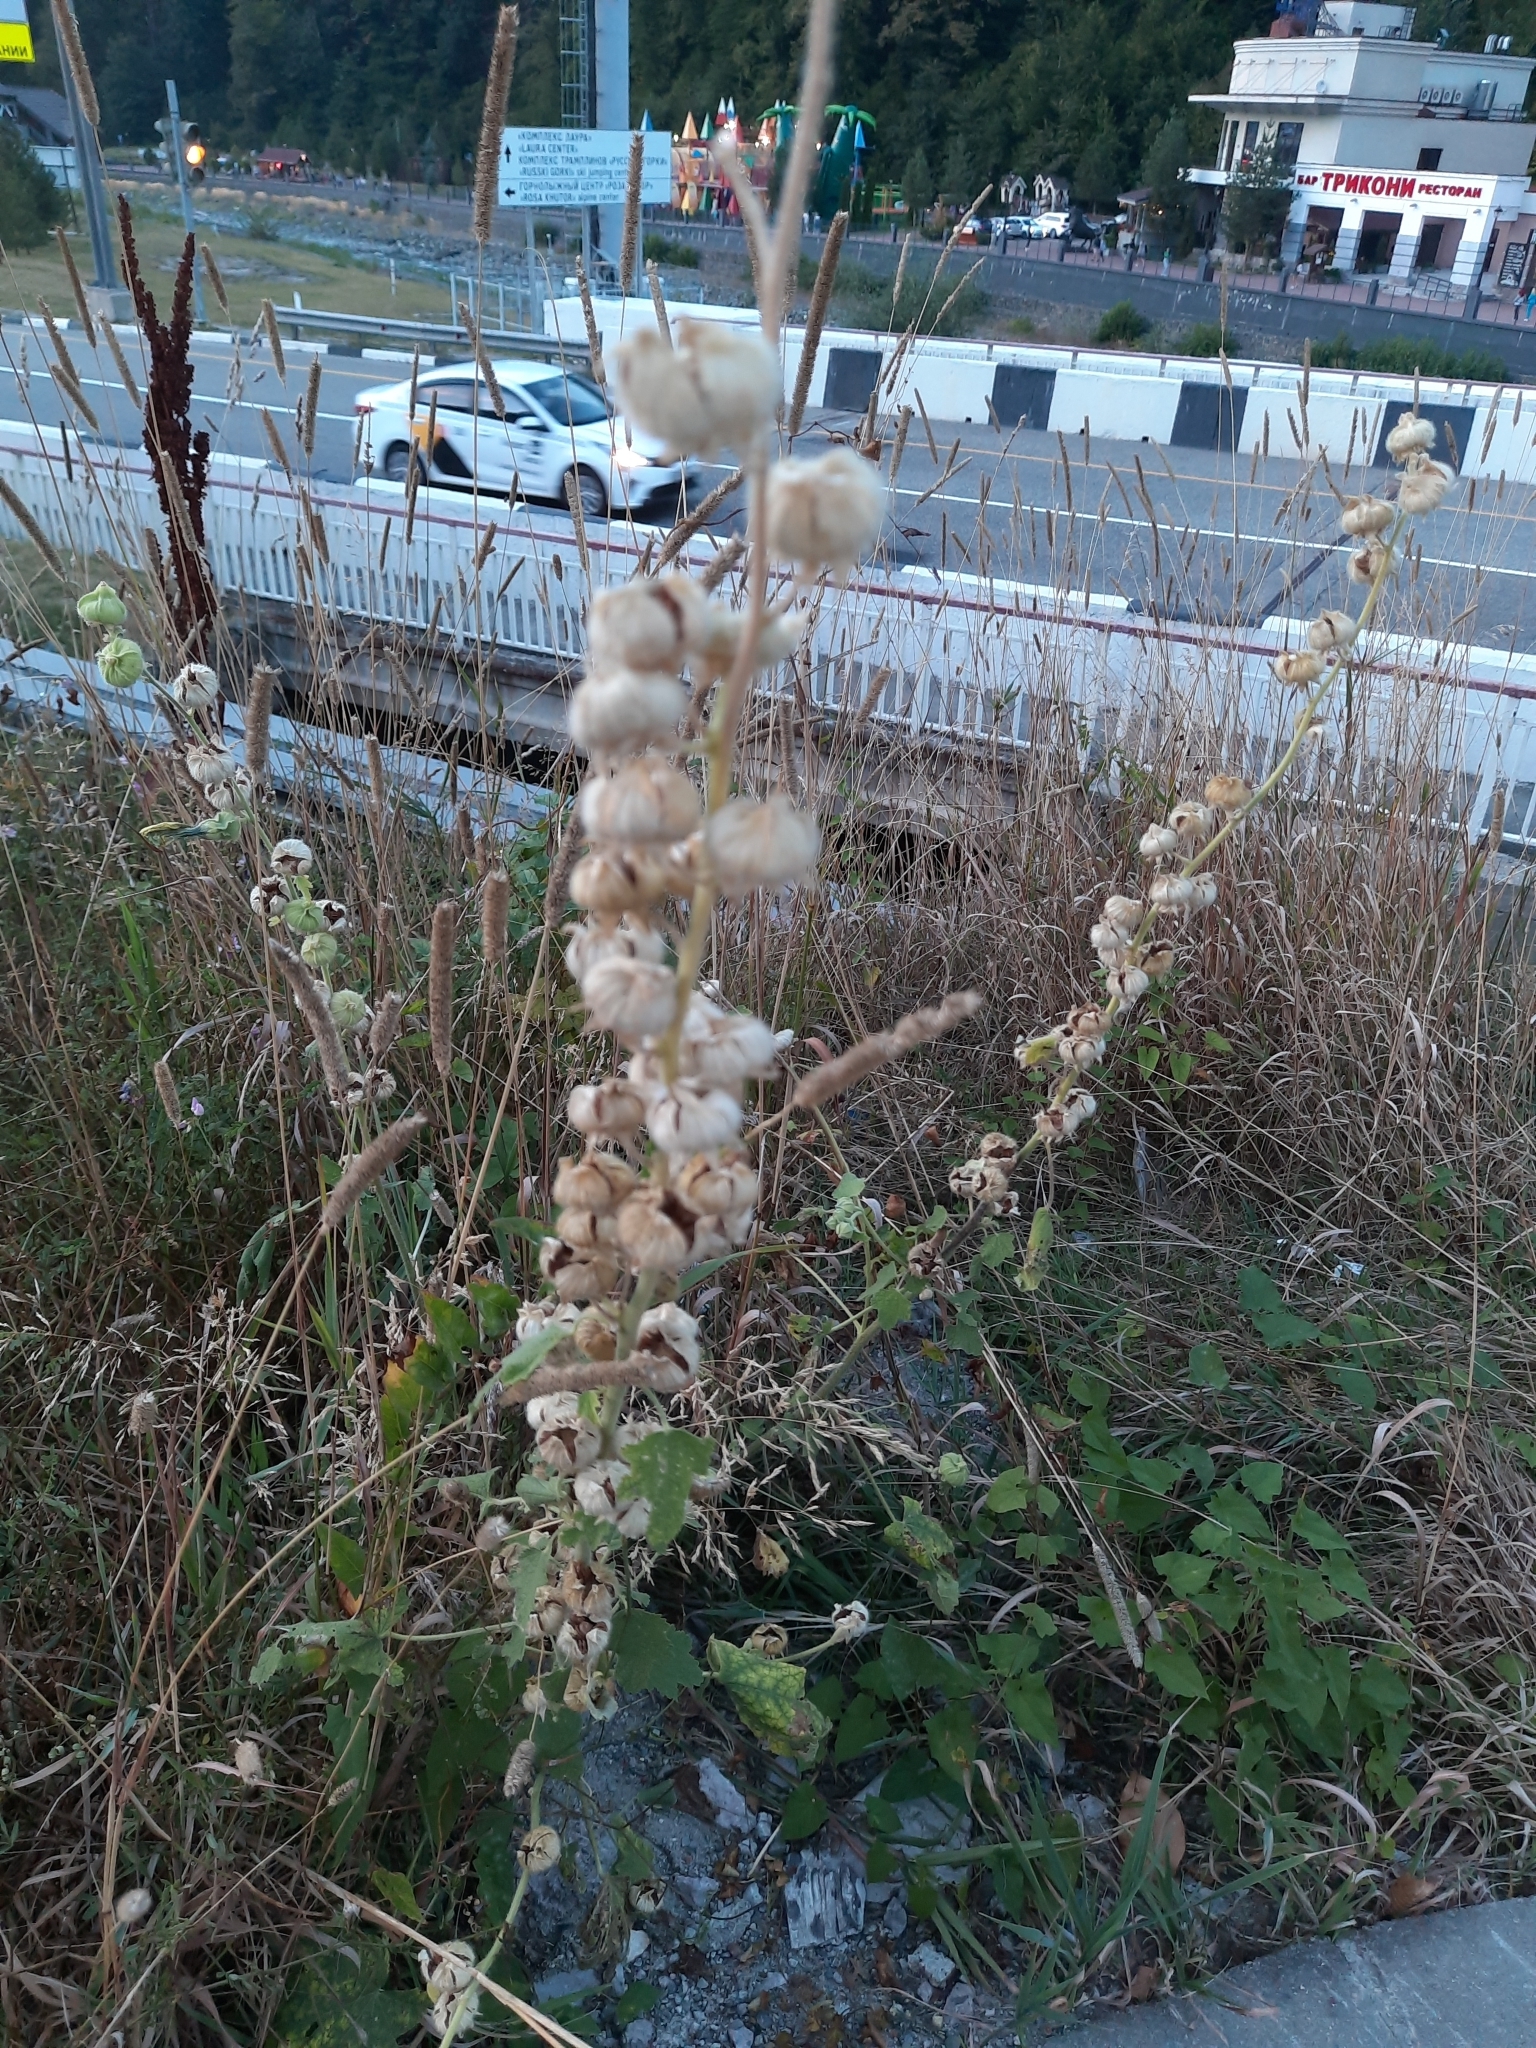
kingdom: Plantae
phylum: Tracheophyta
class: Magnoliopsida
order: Boraginales
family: Boraginaceae
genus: Cynoglossum
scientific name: Cynoglossum officinale
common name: Hound's-tongue
